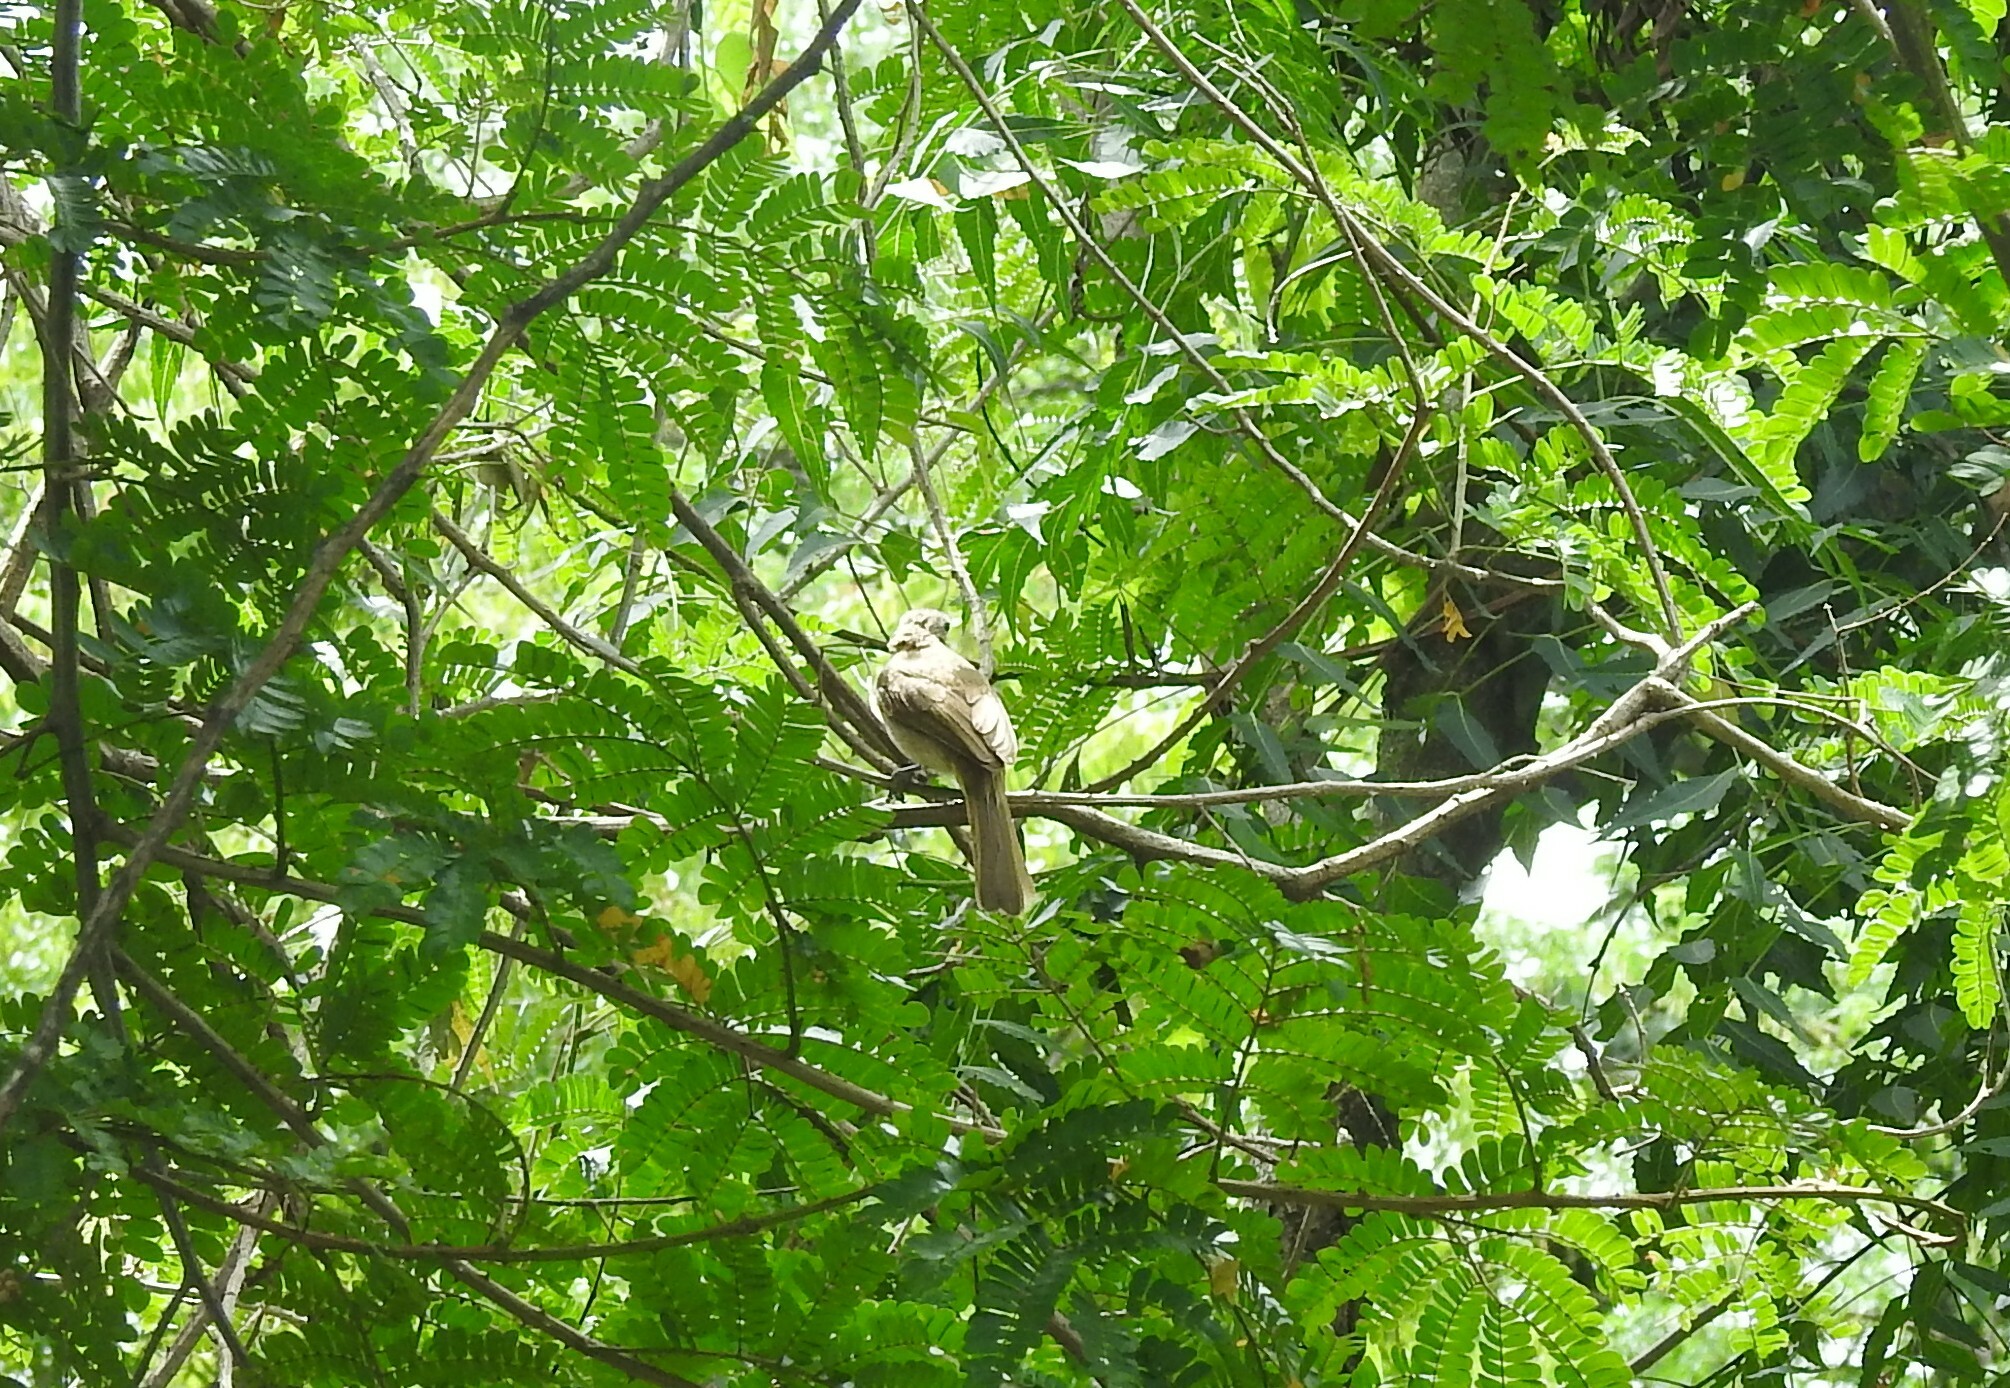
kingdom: Animalia
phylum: Chordata
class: Aves
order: Passeriformes
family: Pycnonotidae
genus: Pycnonotus
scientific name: Pycnonotus luteolus
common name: White-browed bulbul
